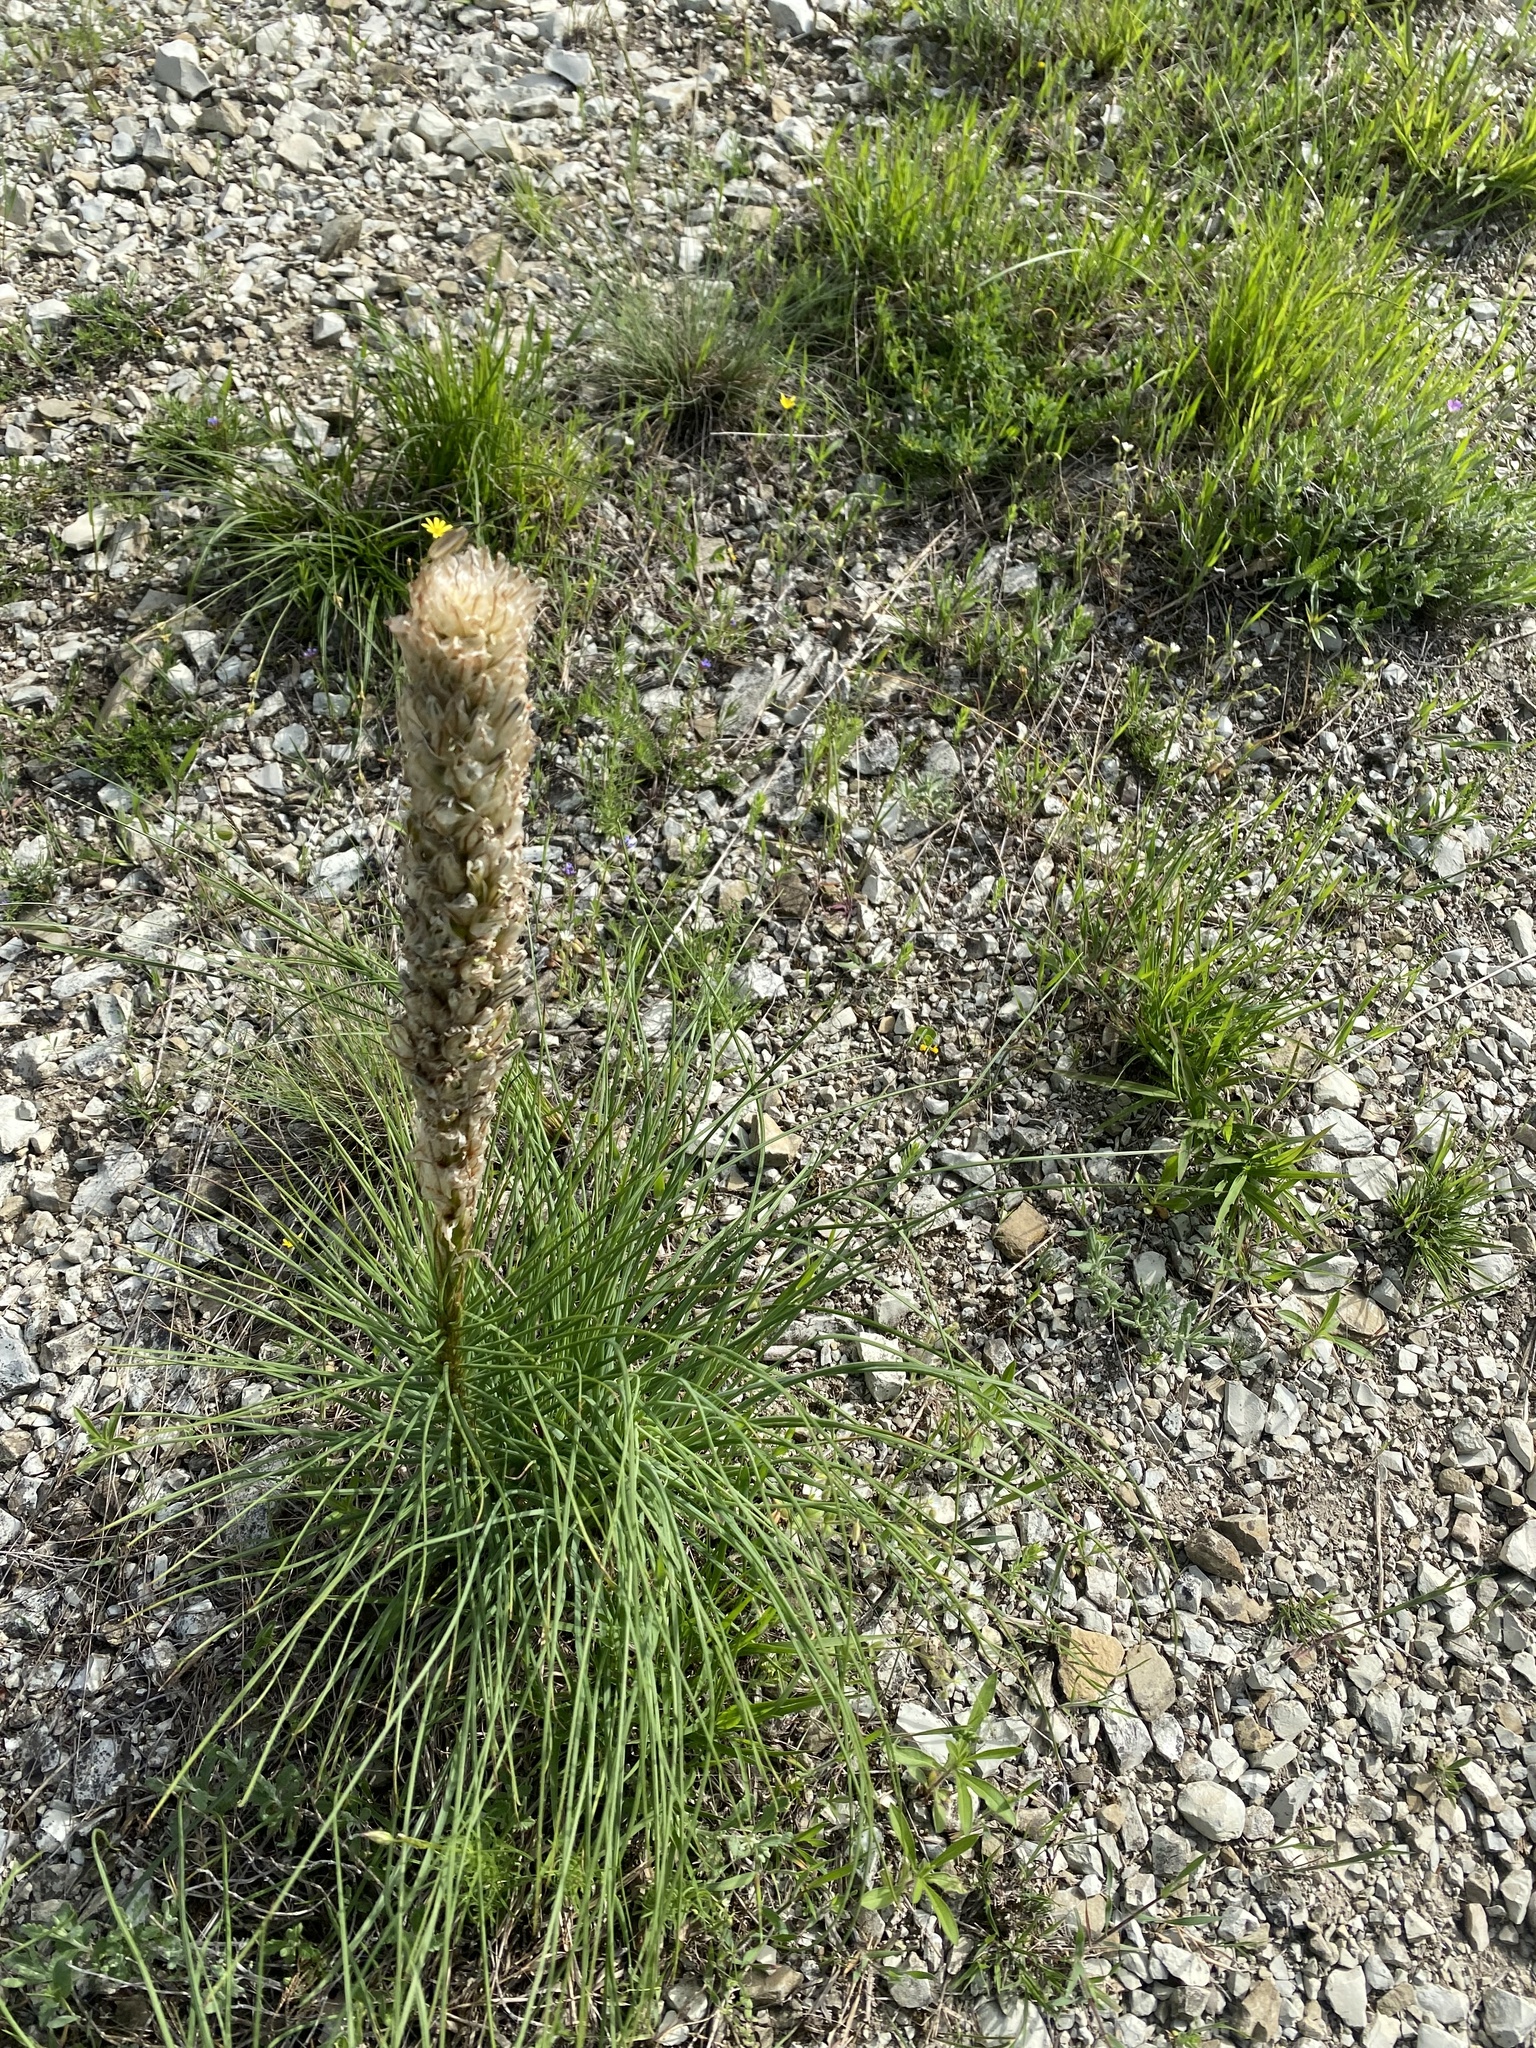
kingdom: Plantae
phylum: Tracheophyta
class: Liliopsida
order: Asparagales
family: Asphodelaceae
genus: Asphodeline
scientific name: Asphodeline taurica
